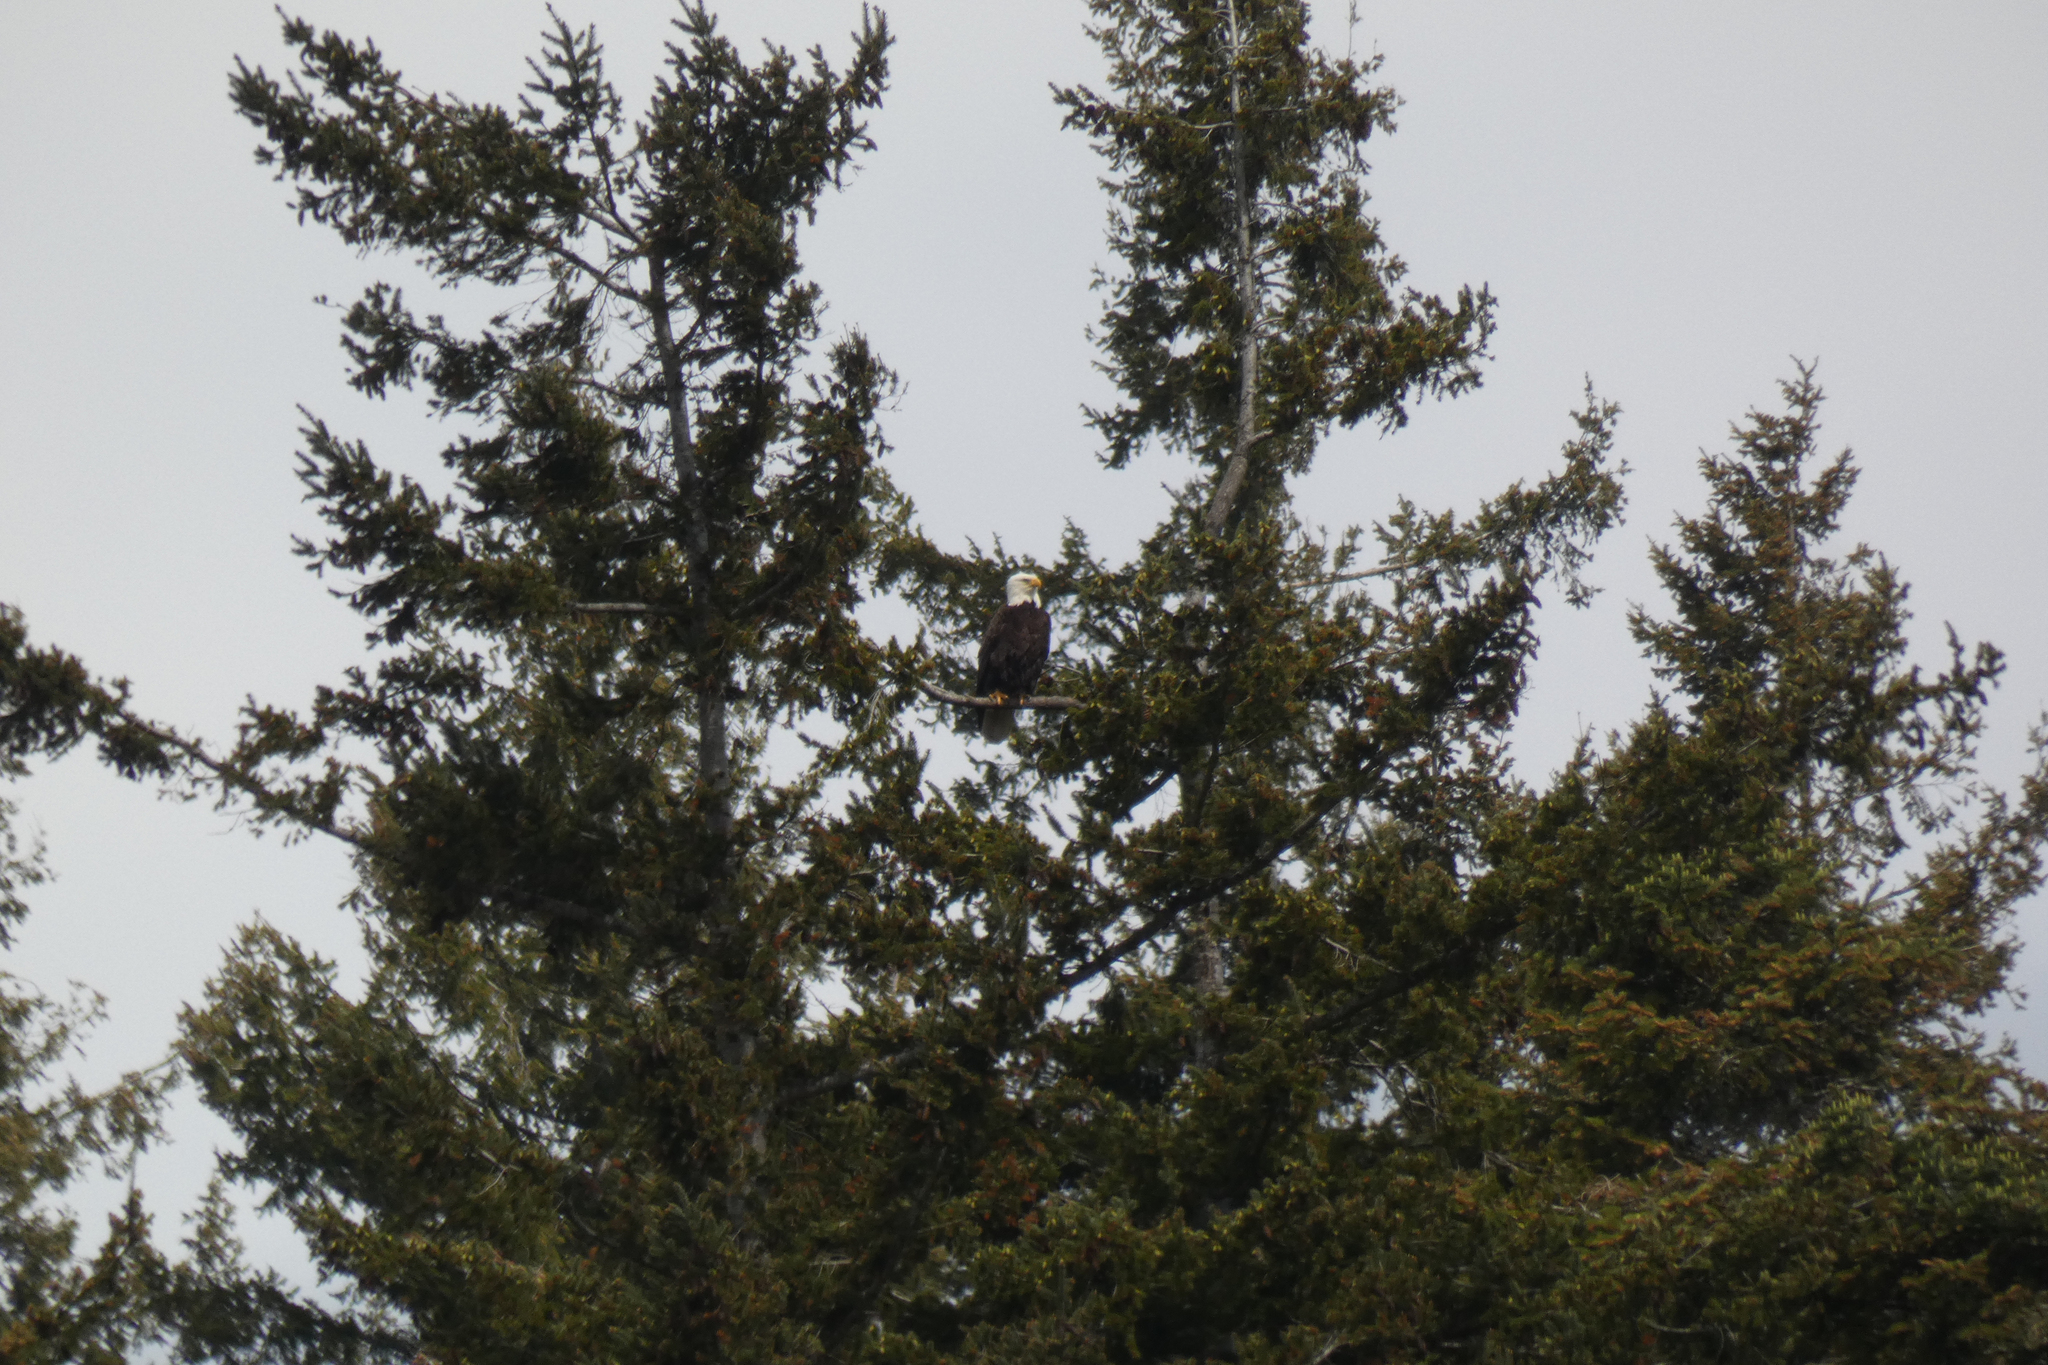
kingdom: Animalia
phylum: Chordata
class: Aves
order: Accipitriformes
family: Accipitridae
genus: Haliaeetus
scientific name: Haliaeetus leucocephalus
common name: Bald eagle
